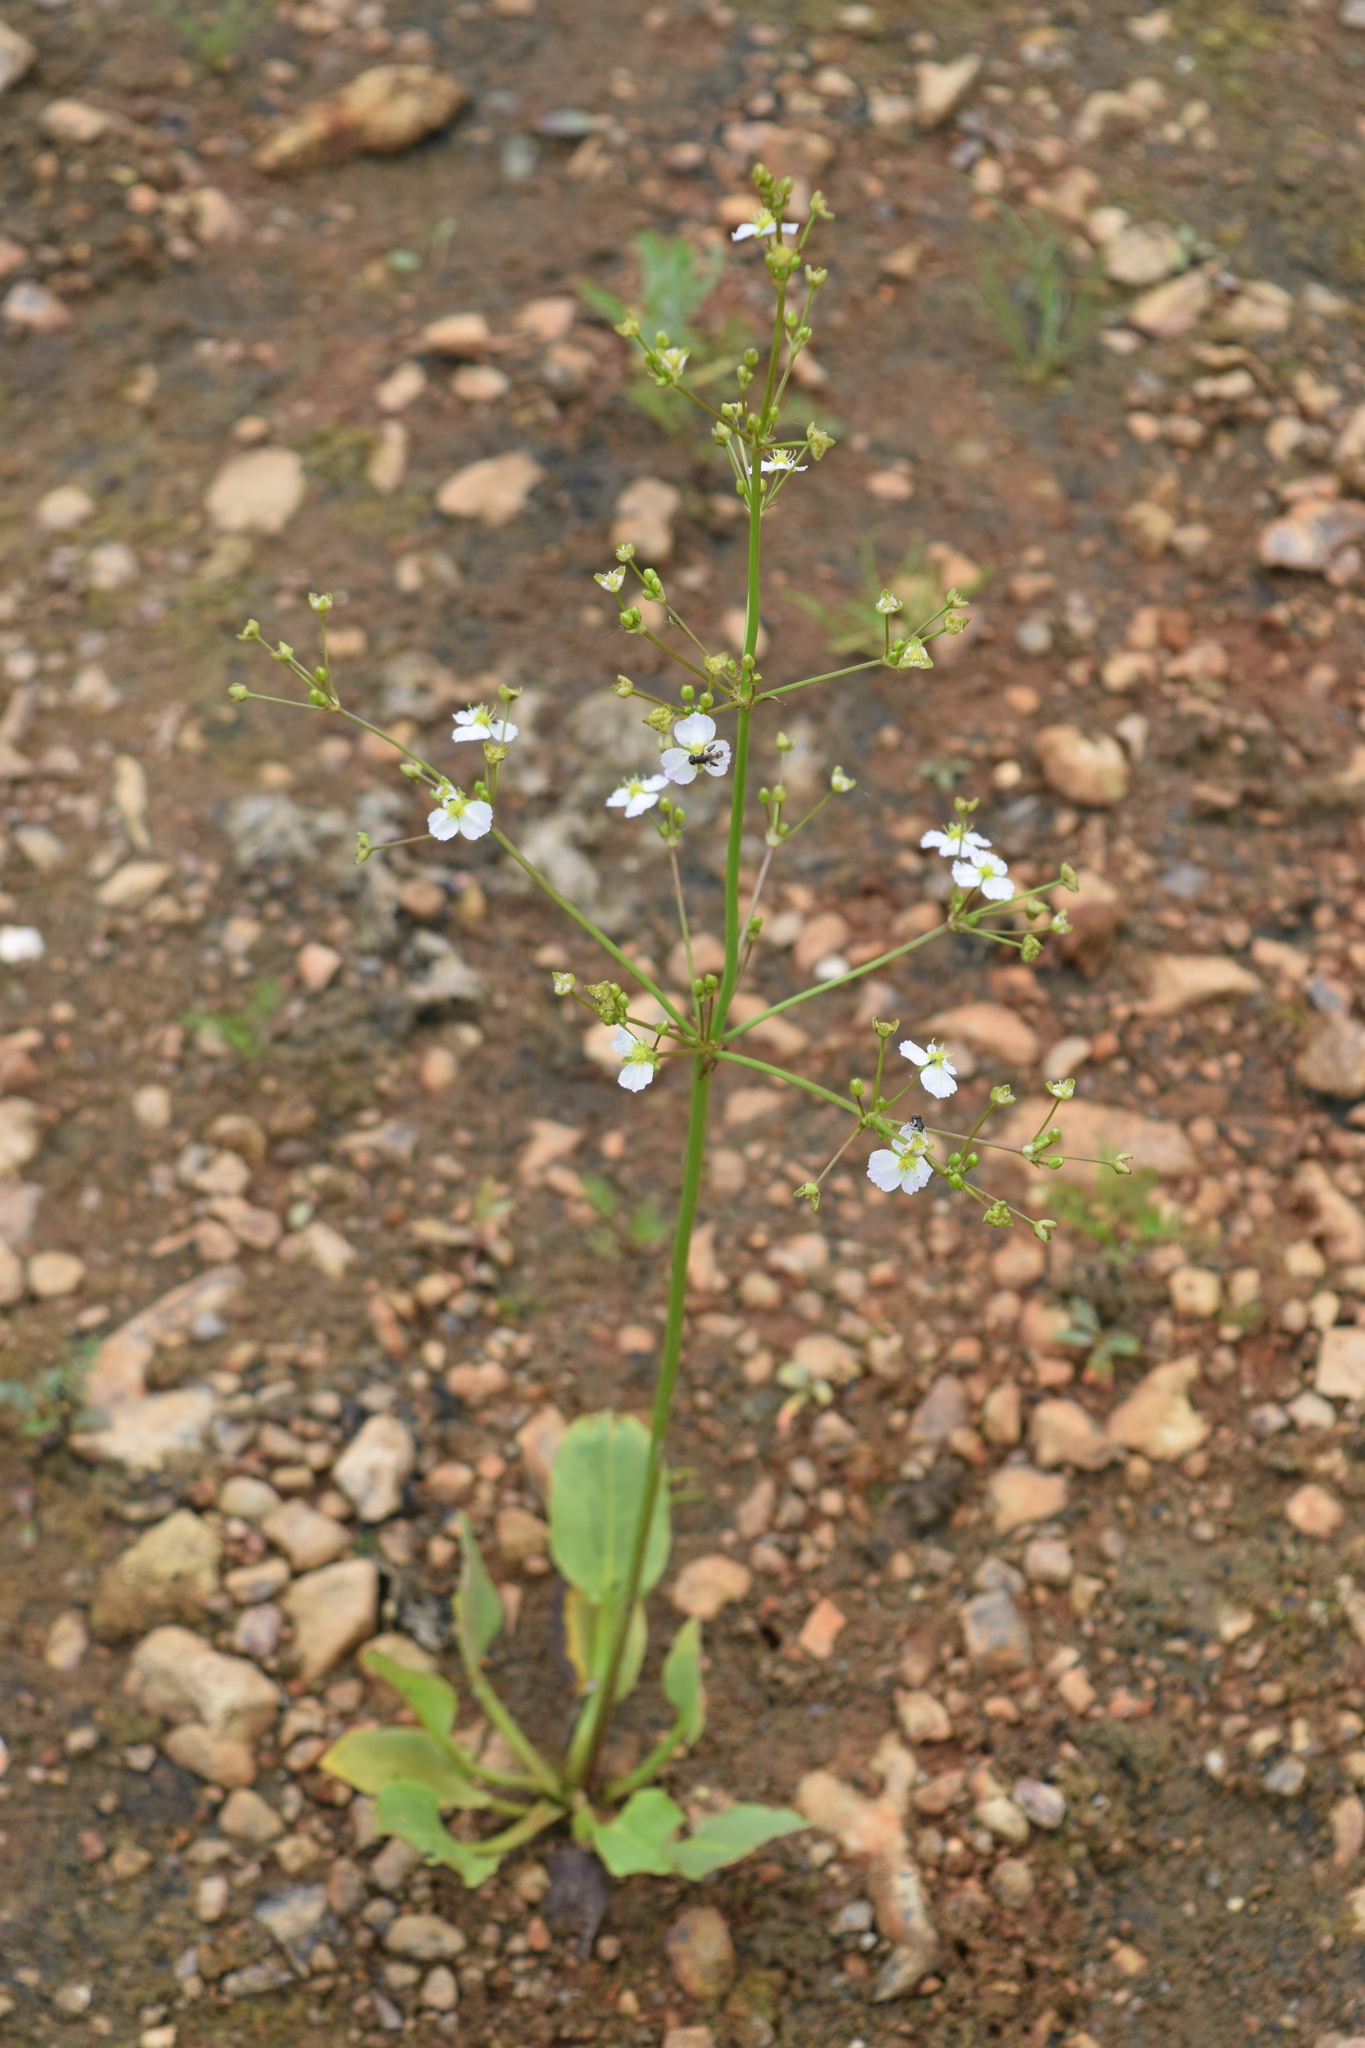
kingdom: Plantae
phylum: Tracheophyta
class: Liliopsida
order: Alismatales
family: Alismataceae
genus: Alisma
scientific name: Alisma plantago-aquatica
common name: Water-plantain
